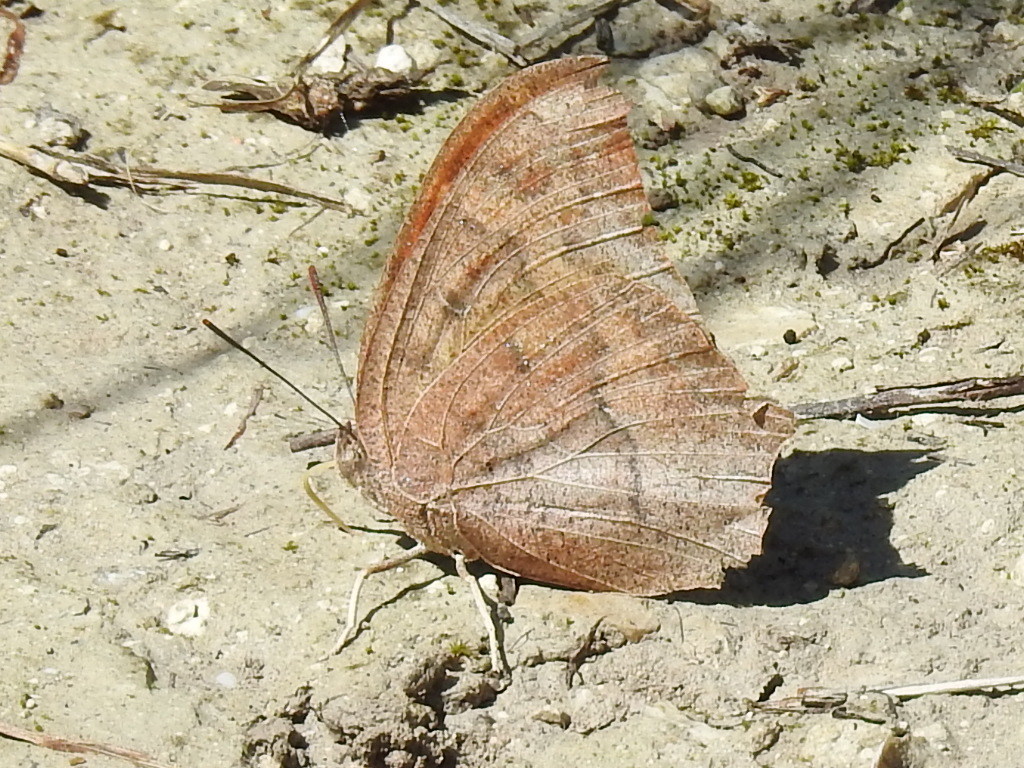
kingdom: Animalia
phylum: Arthropoda
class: Insecta
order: Lepidoptera
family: Nymphalidae
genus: Anaea
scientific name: Anaea andria
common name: Goatweed leafwing
